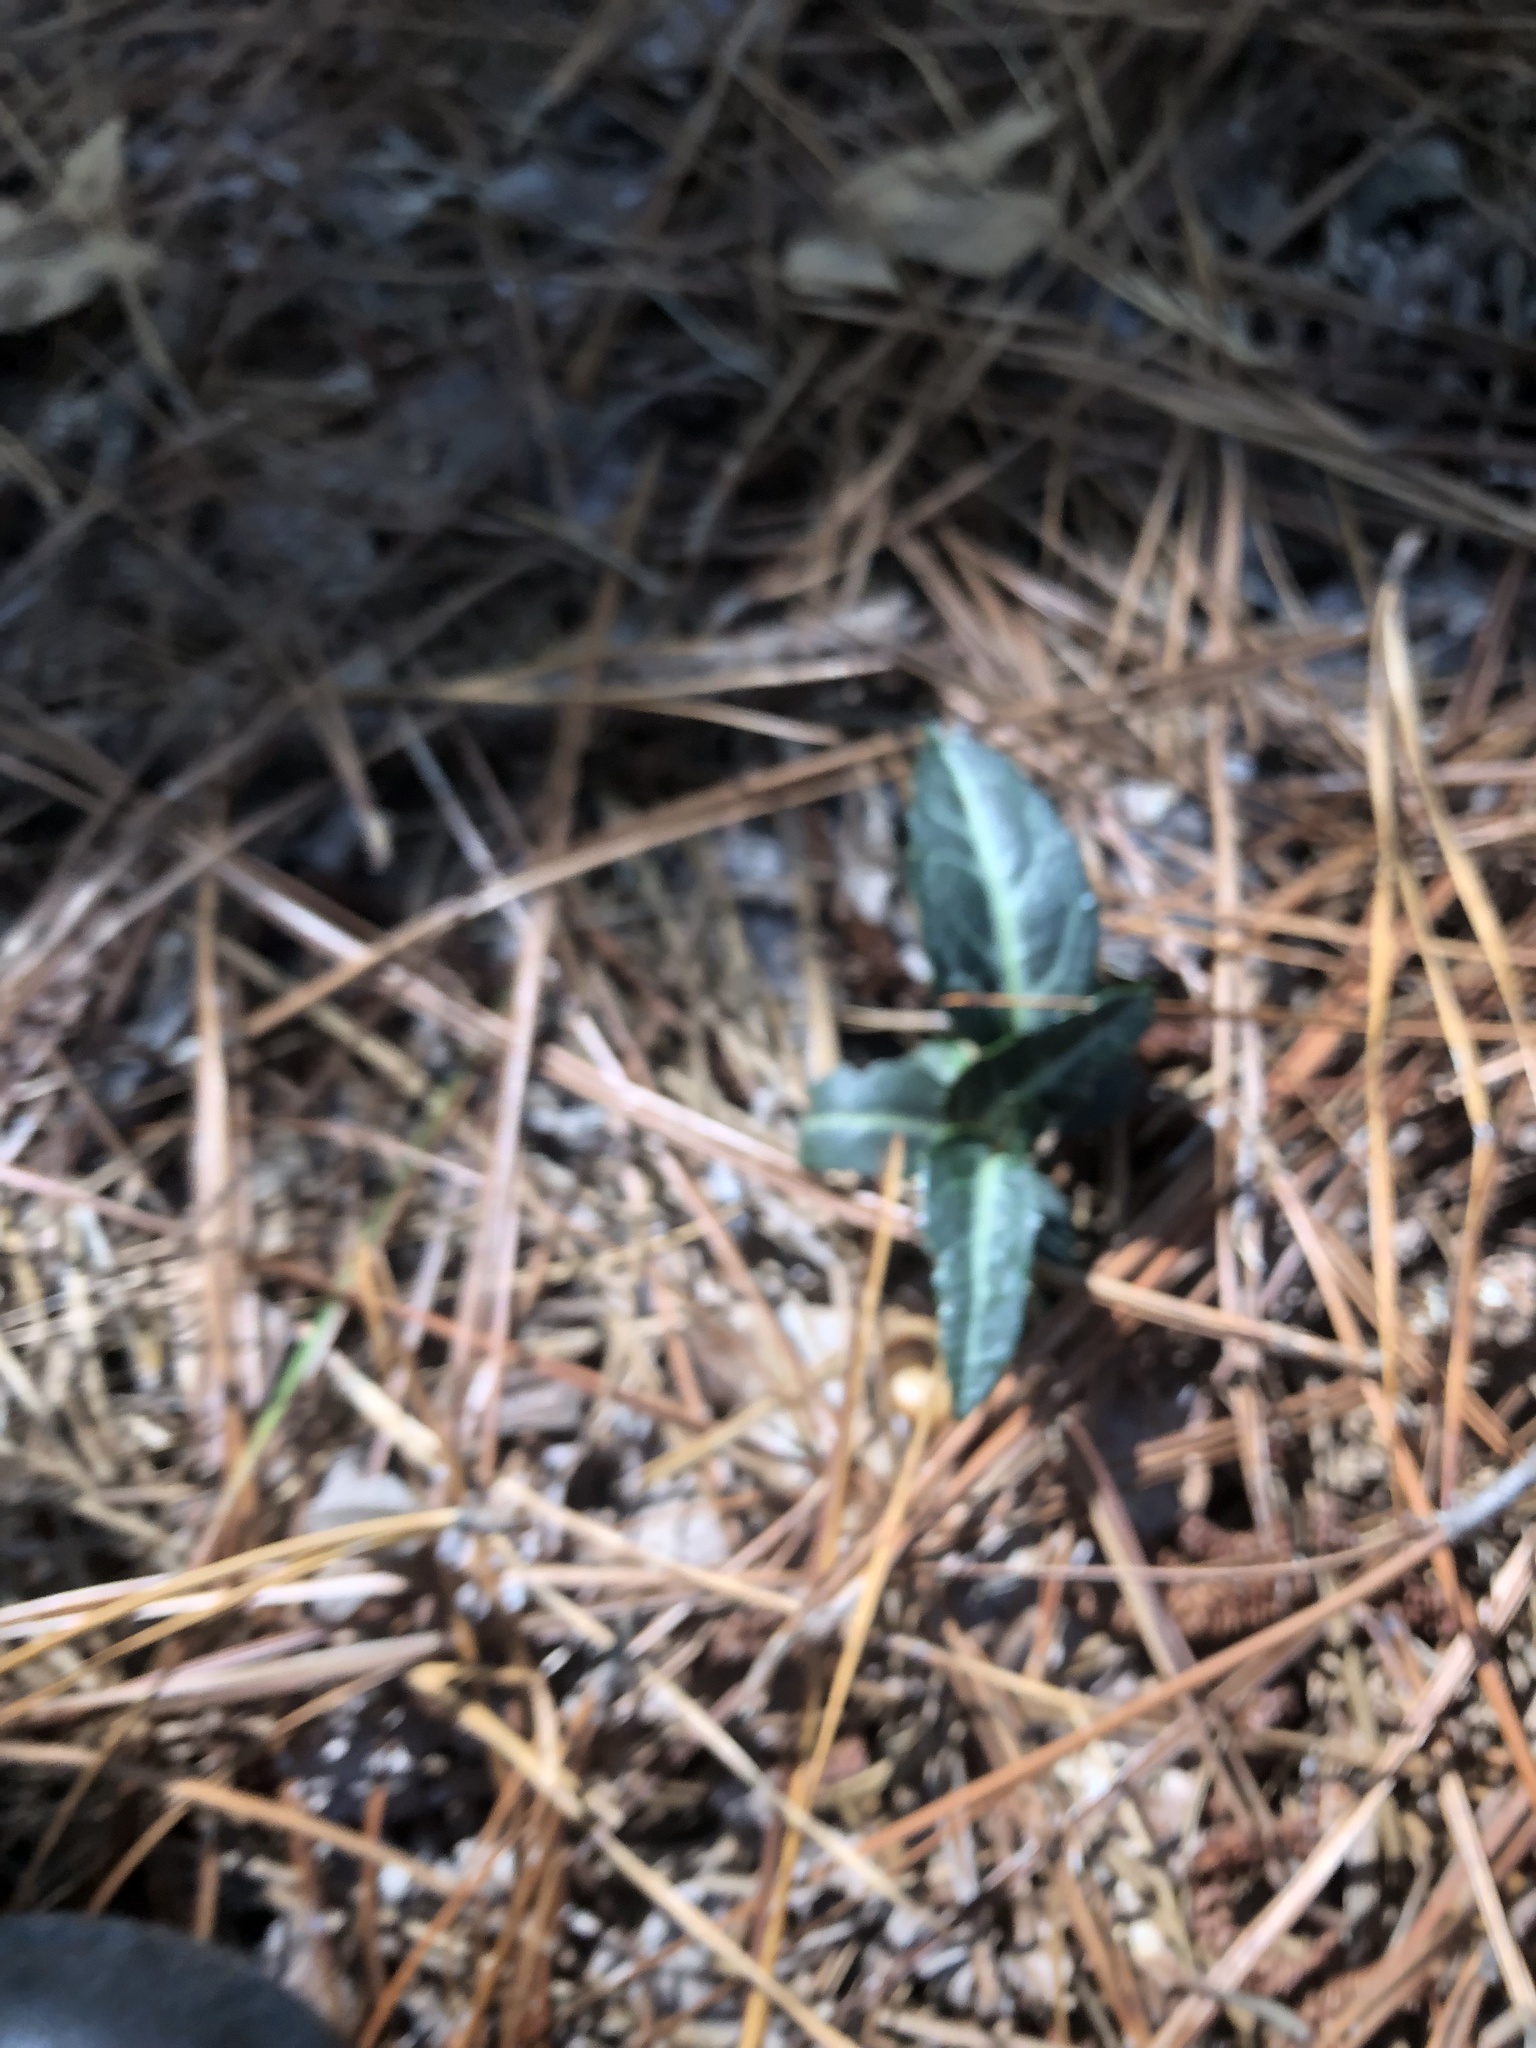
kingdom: Plantae
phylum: Tracheophyta
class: Magnoliopsida
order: Ericales
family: Ericaceae
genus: Chimaphila
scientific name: Chimaphila maculata
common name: Spotted pipsissewa
